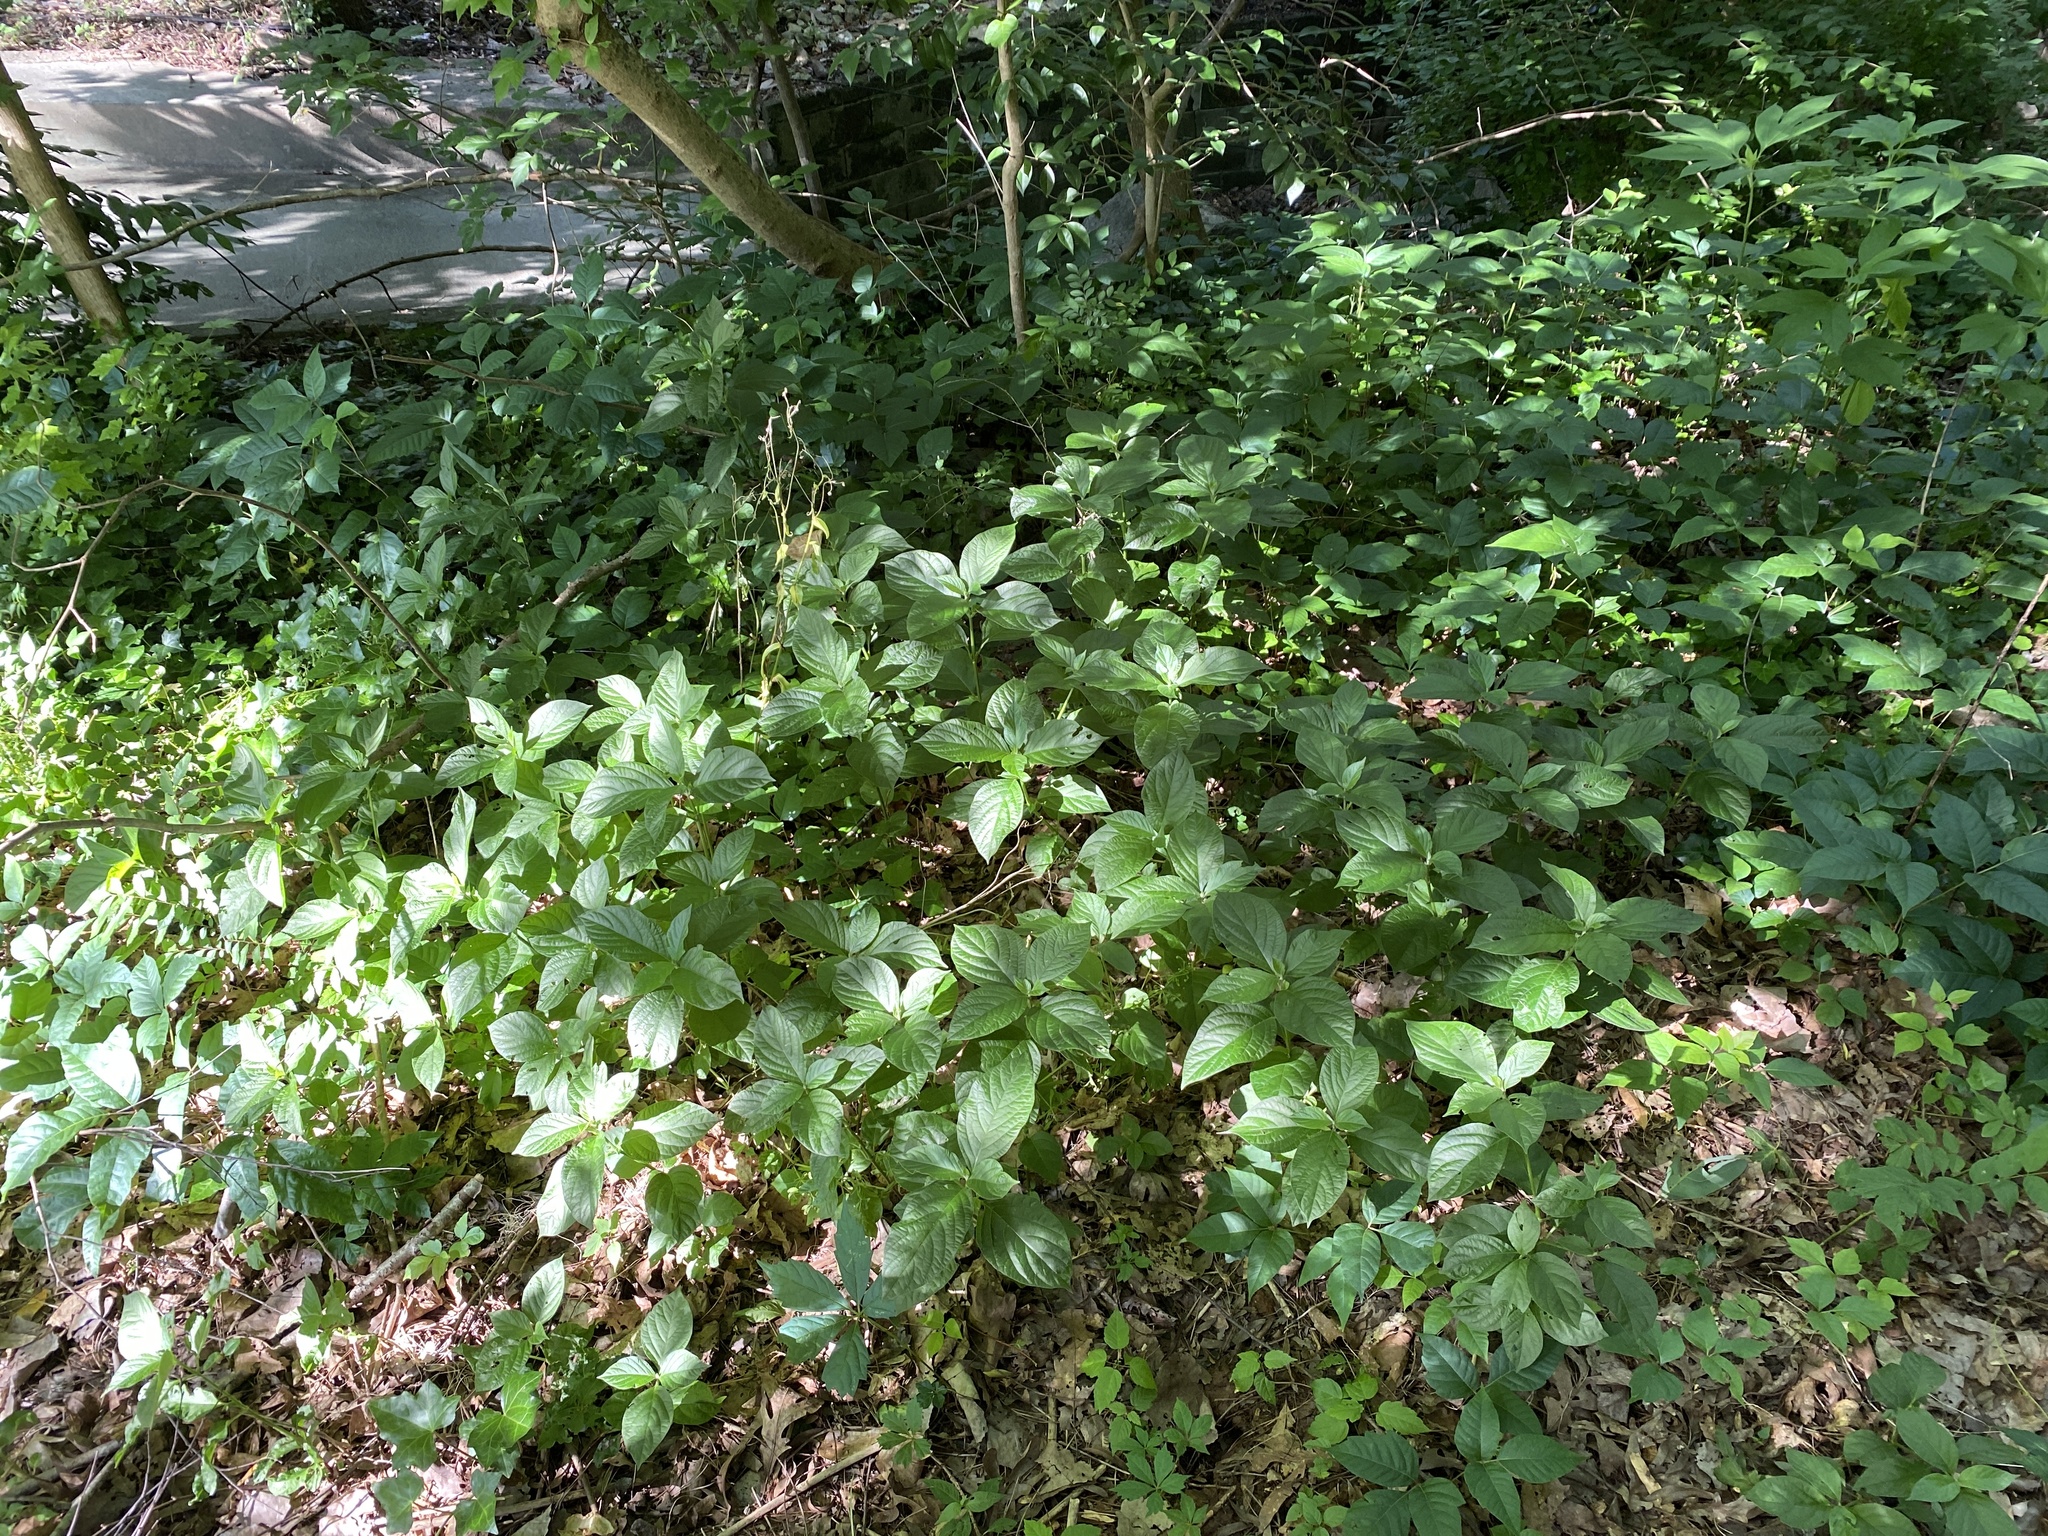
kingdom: Plantae
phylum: Tracheophyta
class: Magnoliopsida
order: Caryophyllales
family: Amaranthaceae
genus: Achyranthes
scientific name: Achyranthes bidentata
